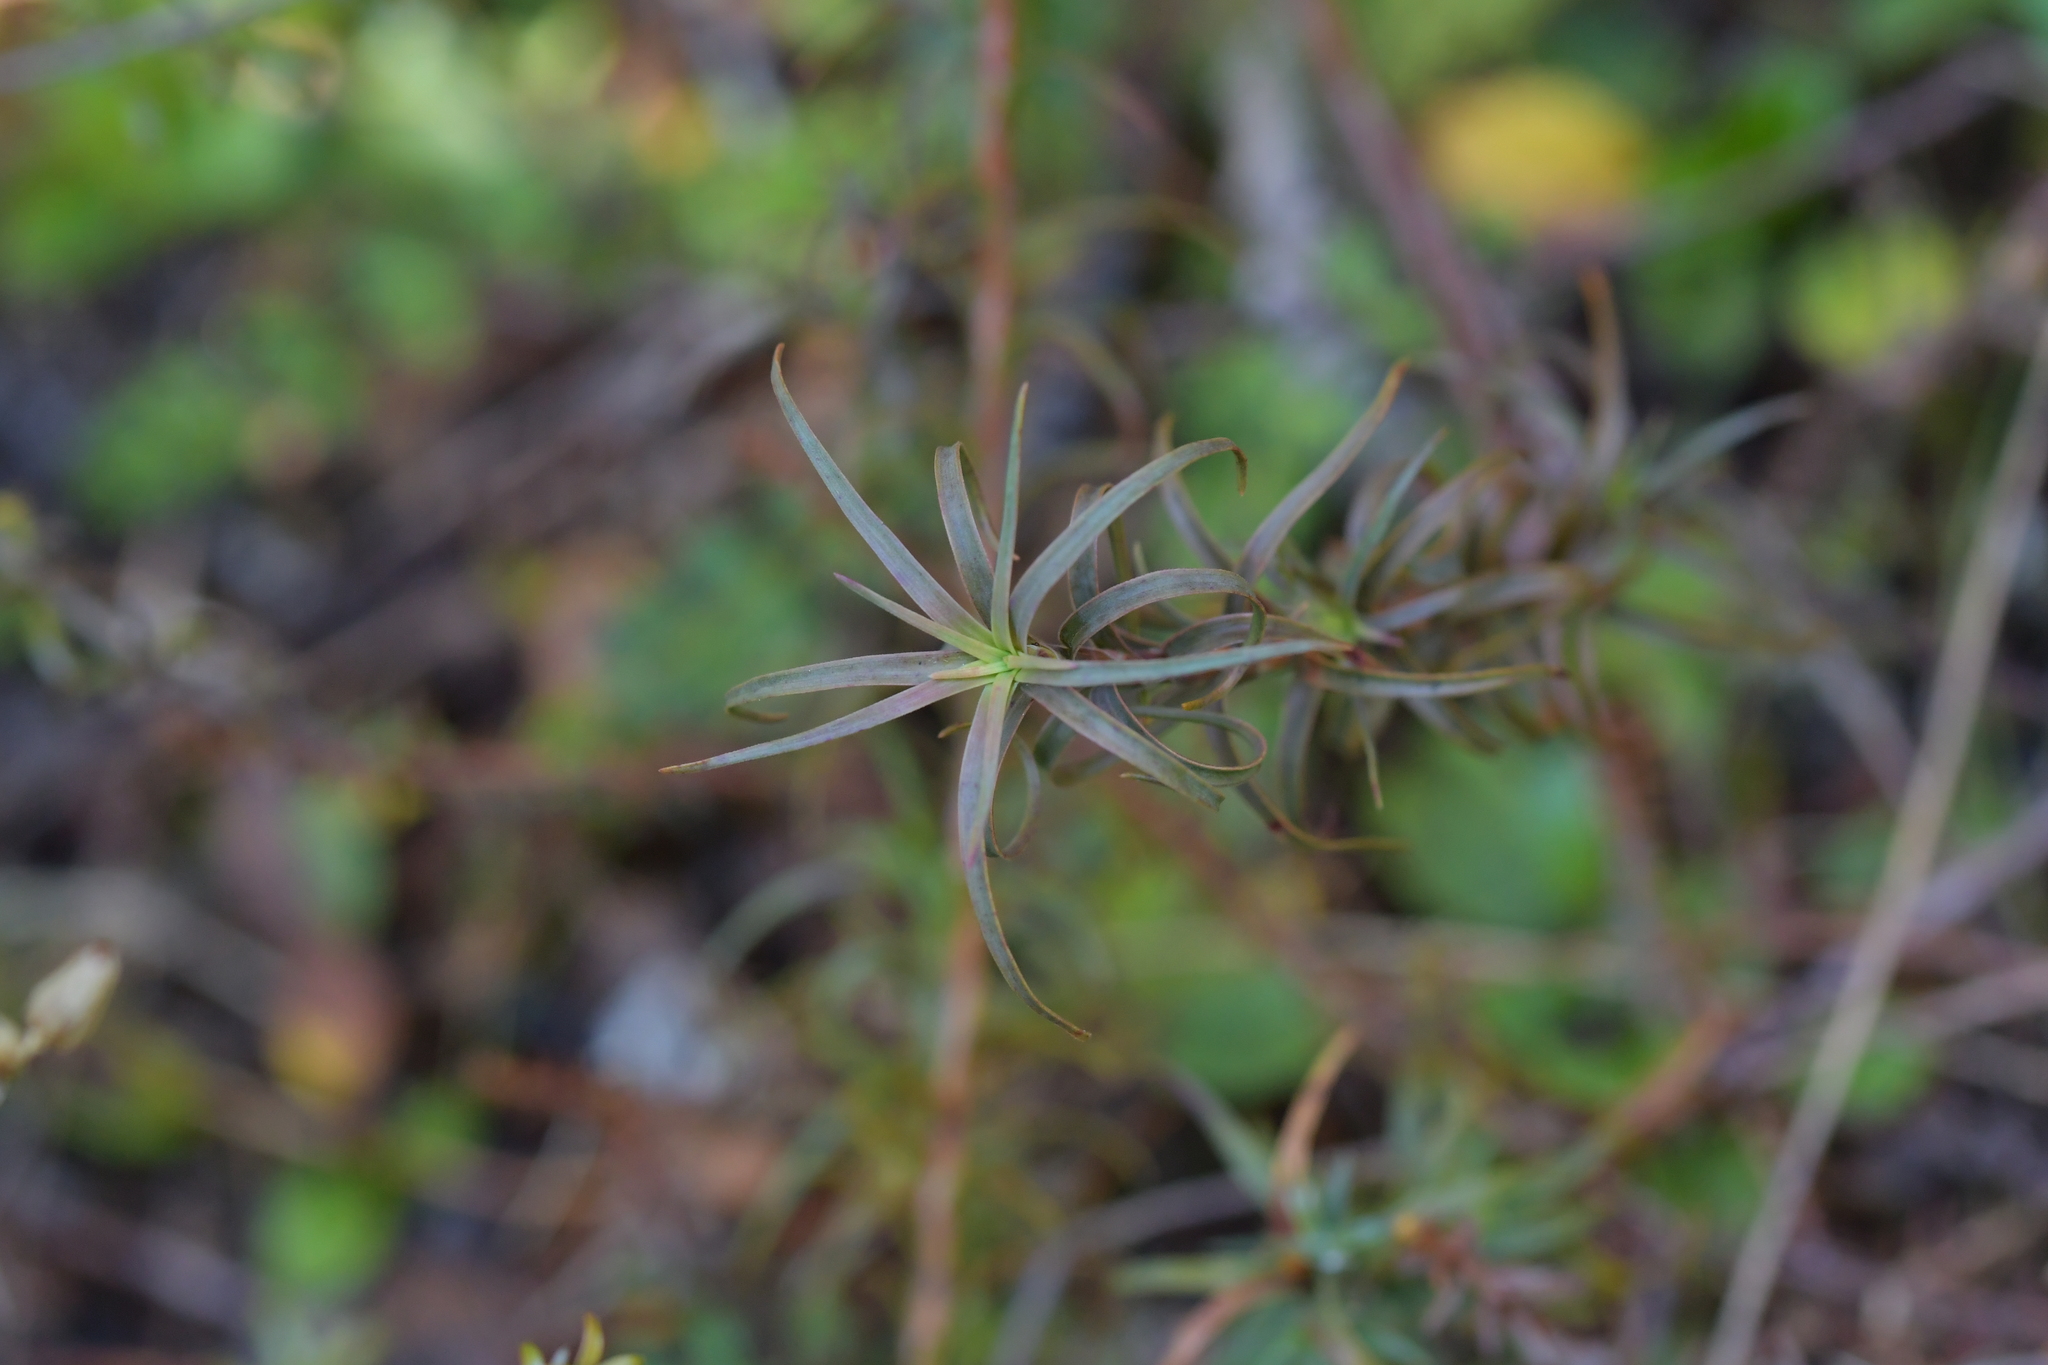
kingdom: Plantae
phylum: Tracheophyta
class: Magnoliopsida
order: Ericales
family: Ericaceae
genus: Dracophyllum
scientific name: Dracophyllum recurvum
